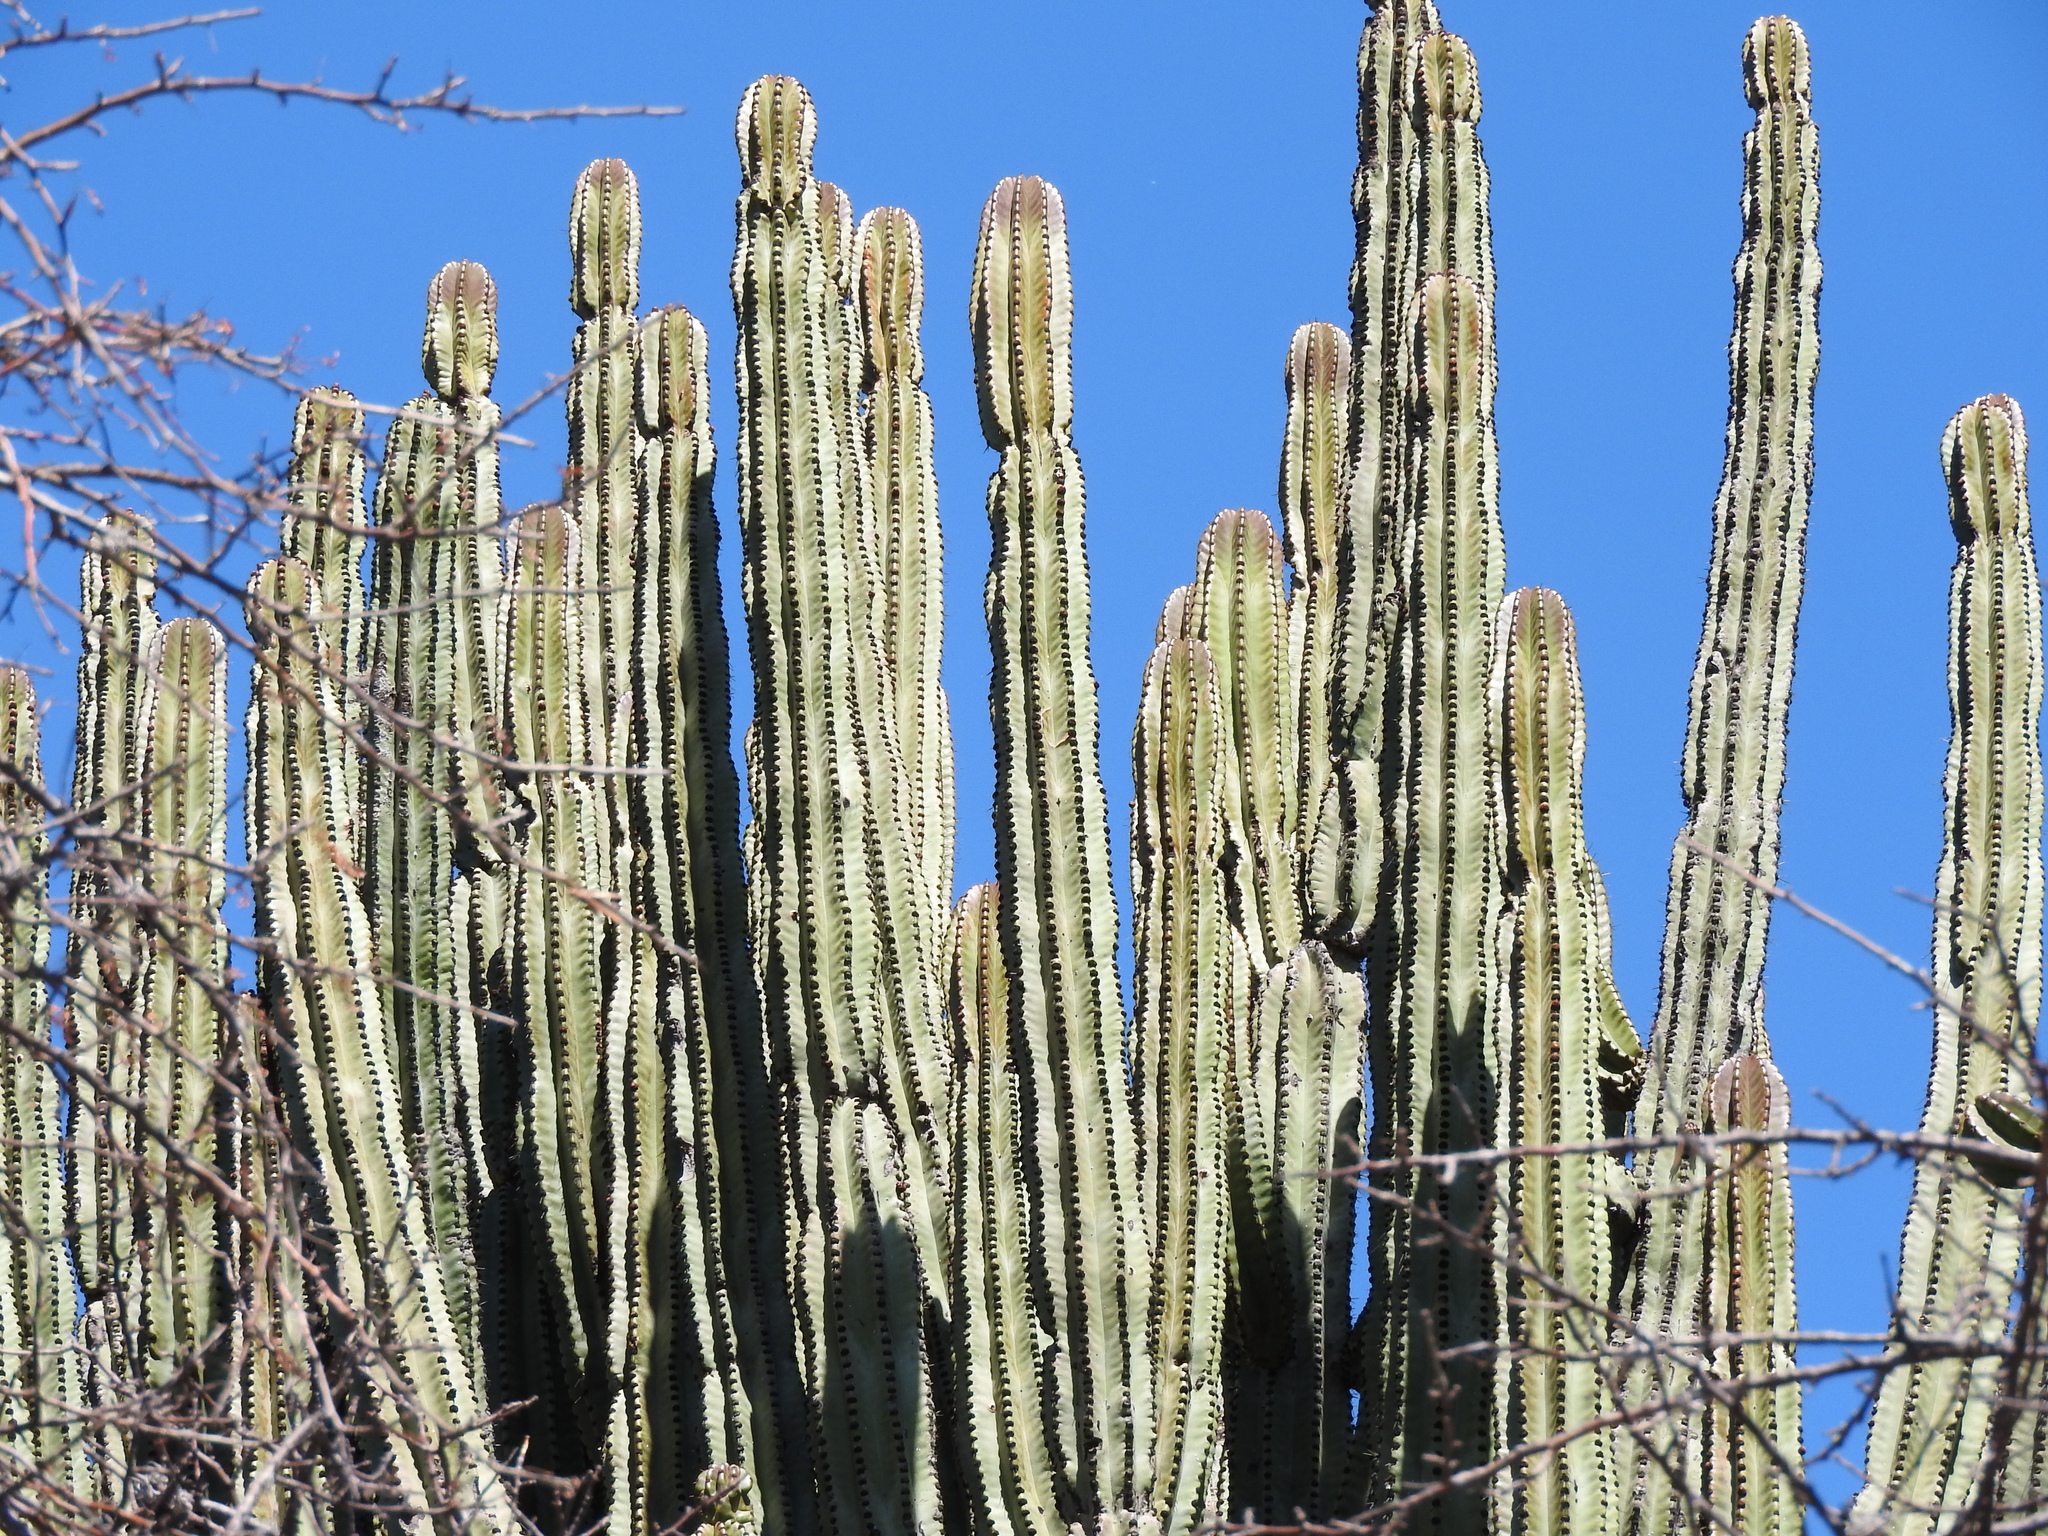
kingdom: Plantae
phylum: Tracheophyta
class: Magnoliopsida
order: Caryophyllales
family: Cactaceae
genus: Stenocereus
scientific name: Stenocereus queretaroensis
